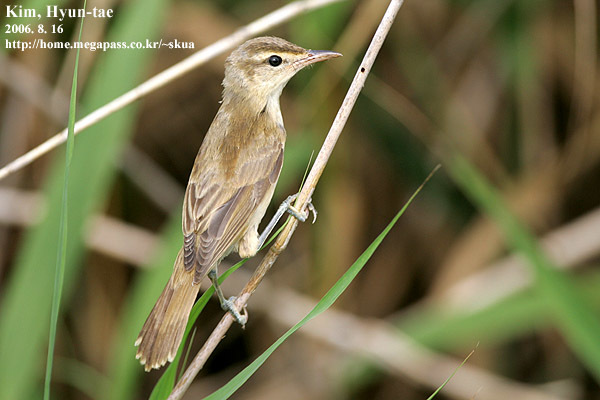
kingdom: Animalia
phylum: Chordata
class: Aves
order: Passeriformes
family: Acrocephalidae
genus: Acrocephalus
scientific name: Acrocephalus orientalis
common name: Oriental reed warbler
